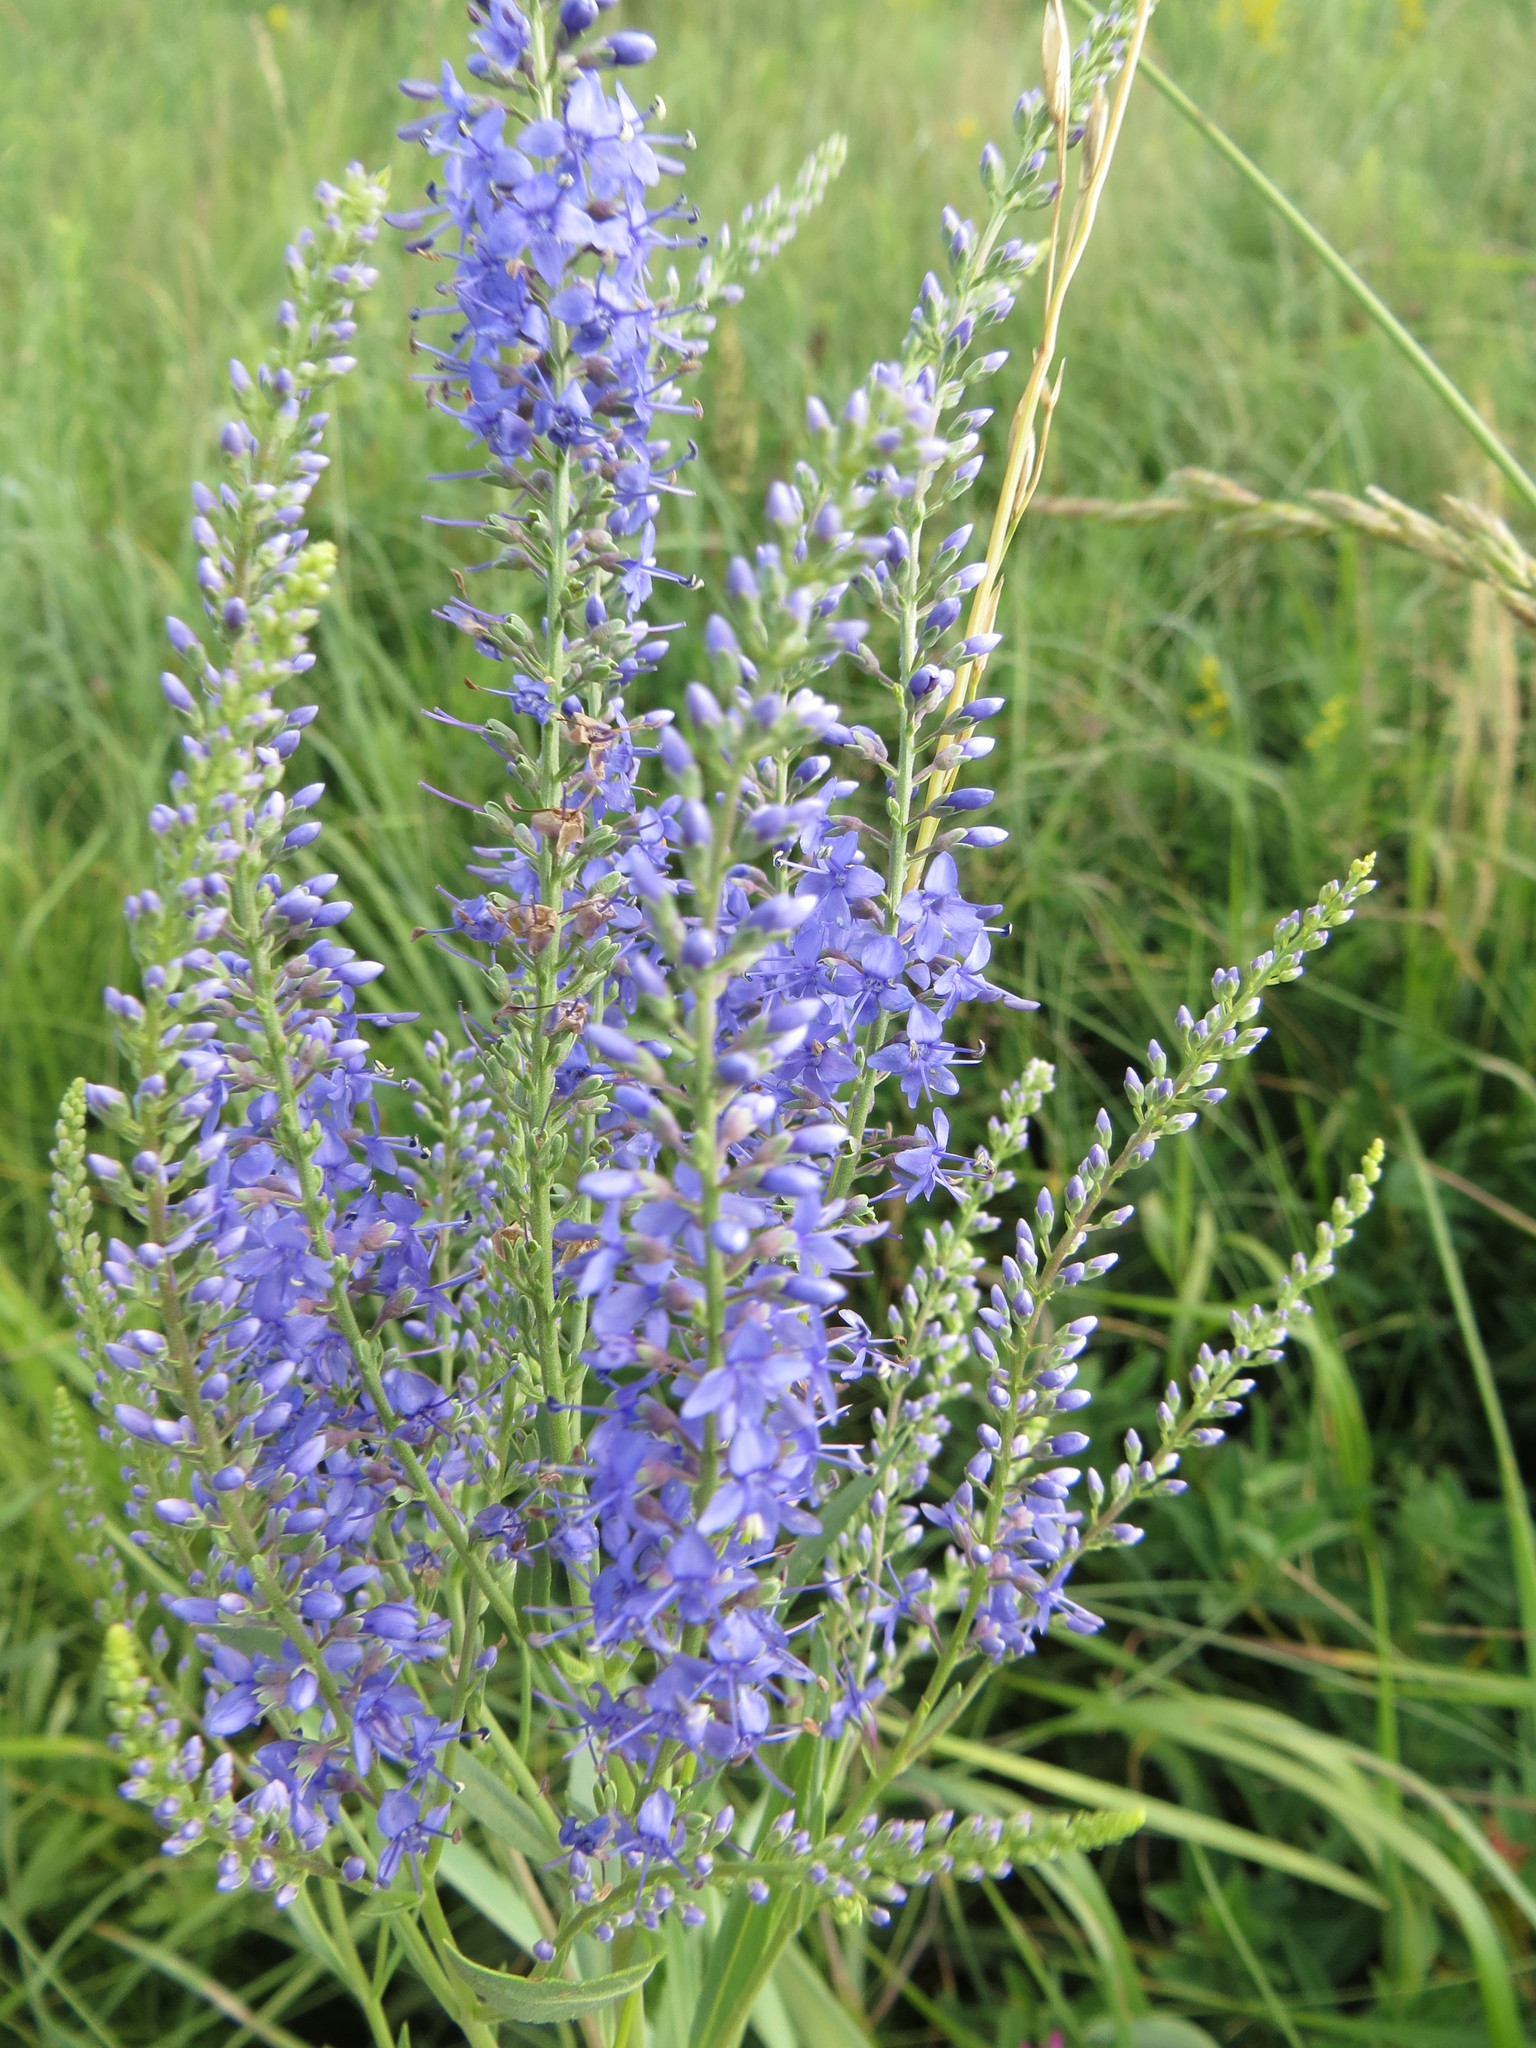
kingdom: Plantae
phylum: Tracheophyta
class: Magnoliopsida
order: Lamiales
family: Plantaginaceae
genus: Veronica
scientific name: Veronica spuria
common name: Bastard speedwell
